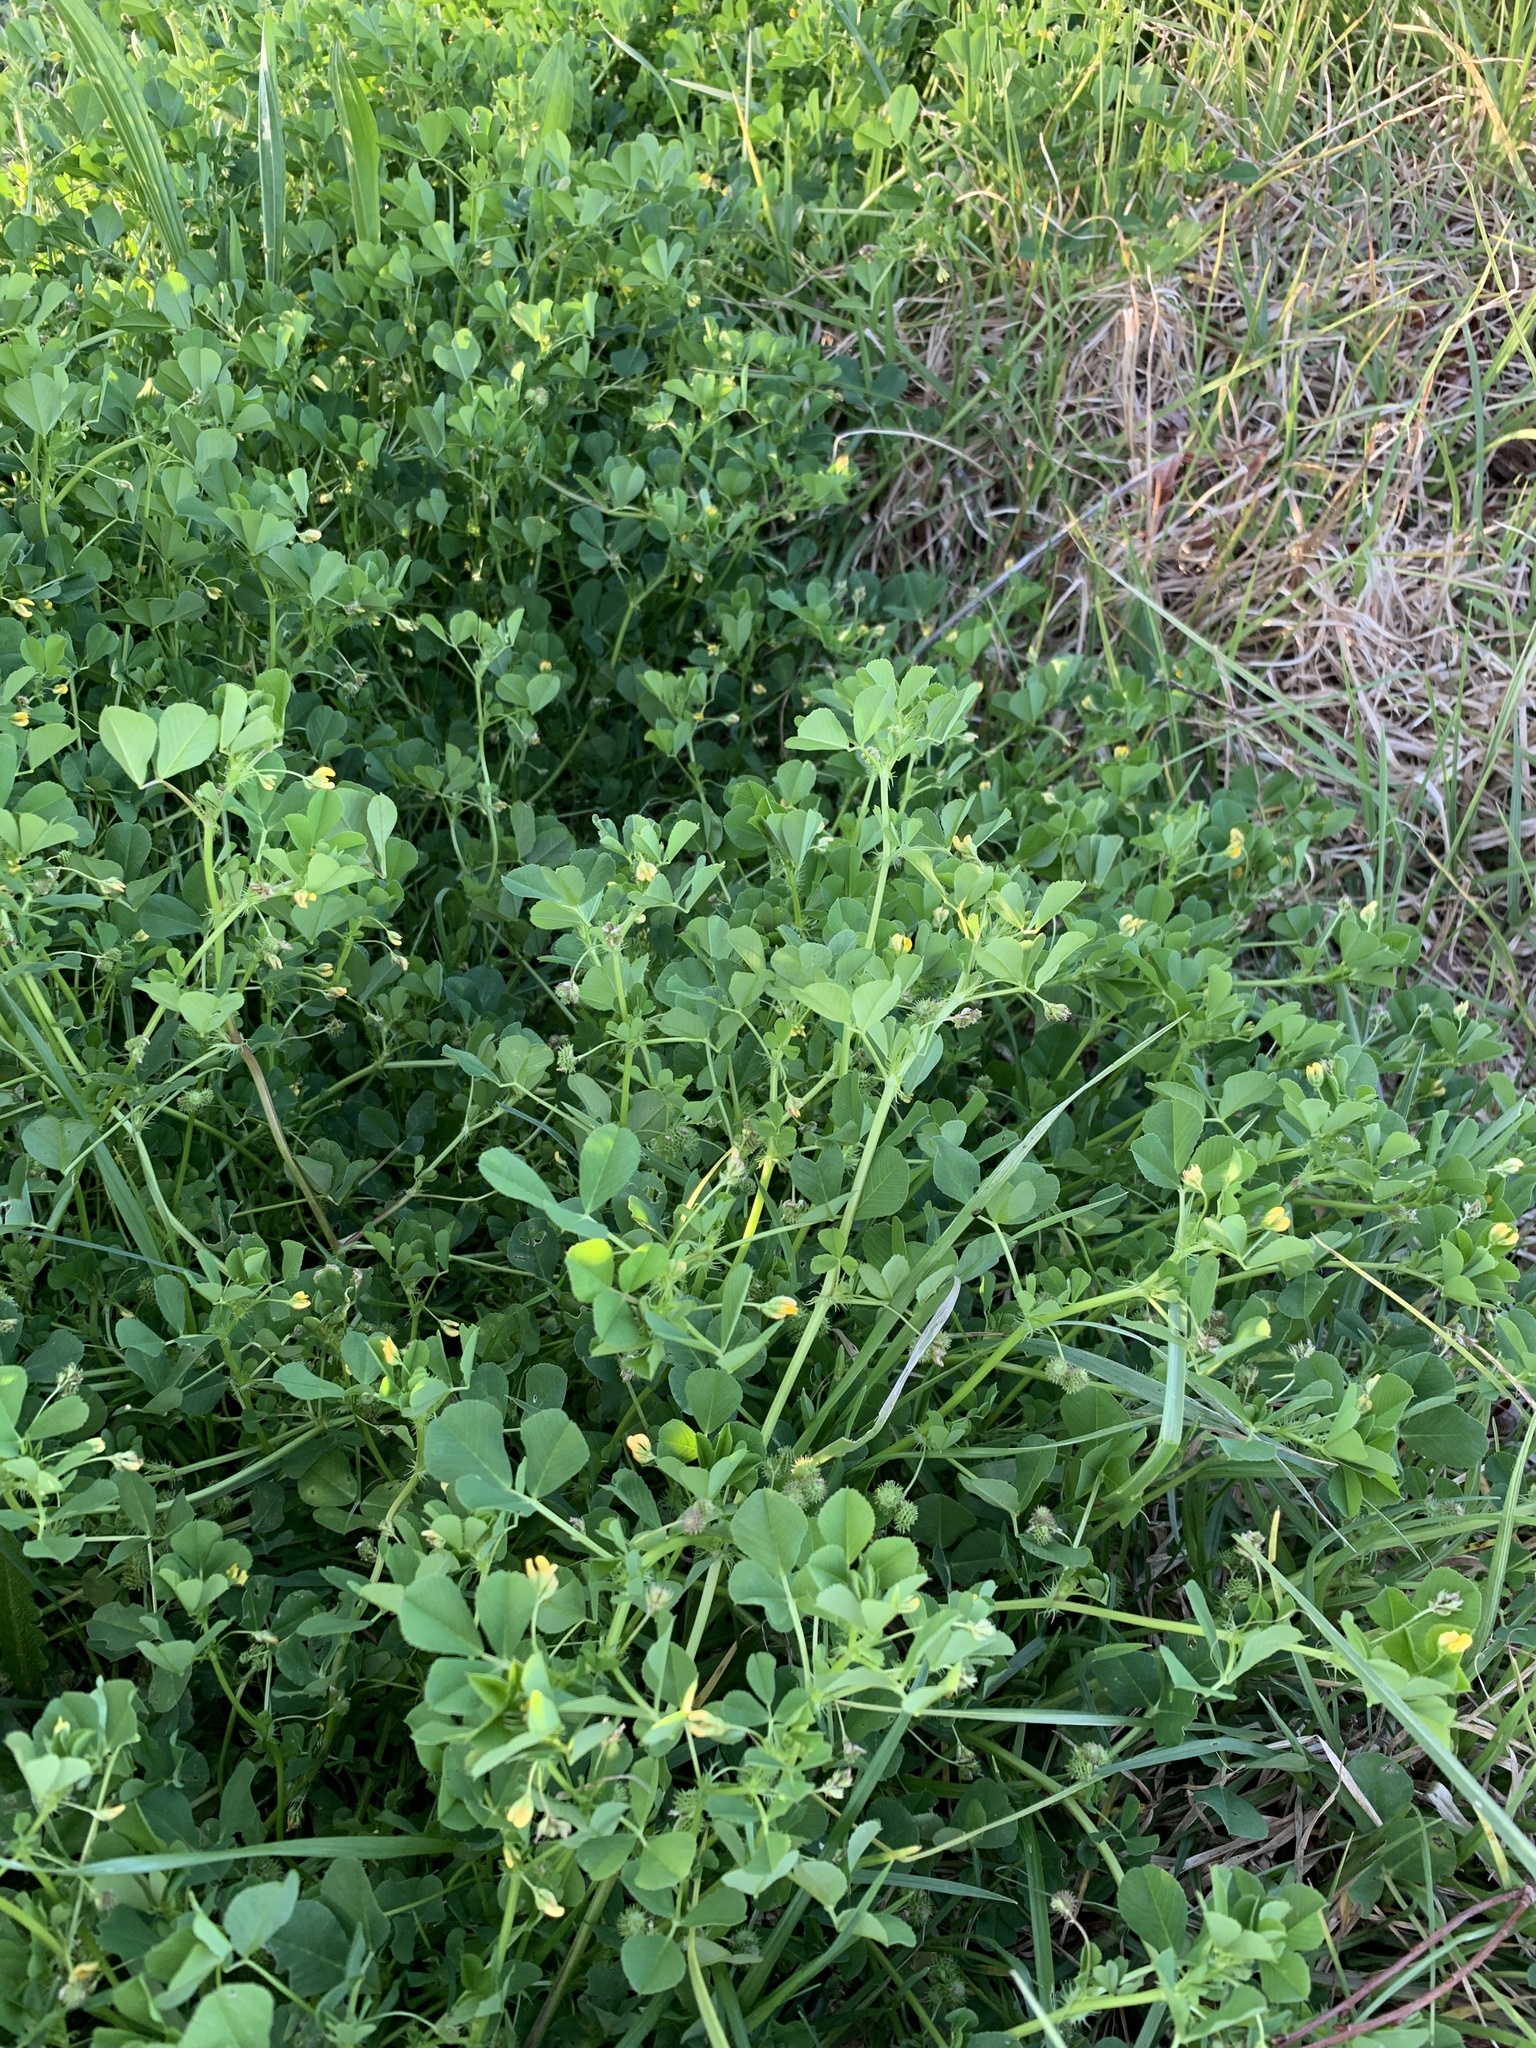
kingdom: Plantae
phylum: Tracheophyta
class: Magnoliopsida
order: Fabales
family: Fabaceae
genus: Medicago
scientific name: Medicago polymorpha
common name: Burclover
